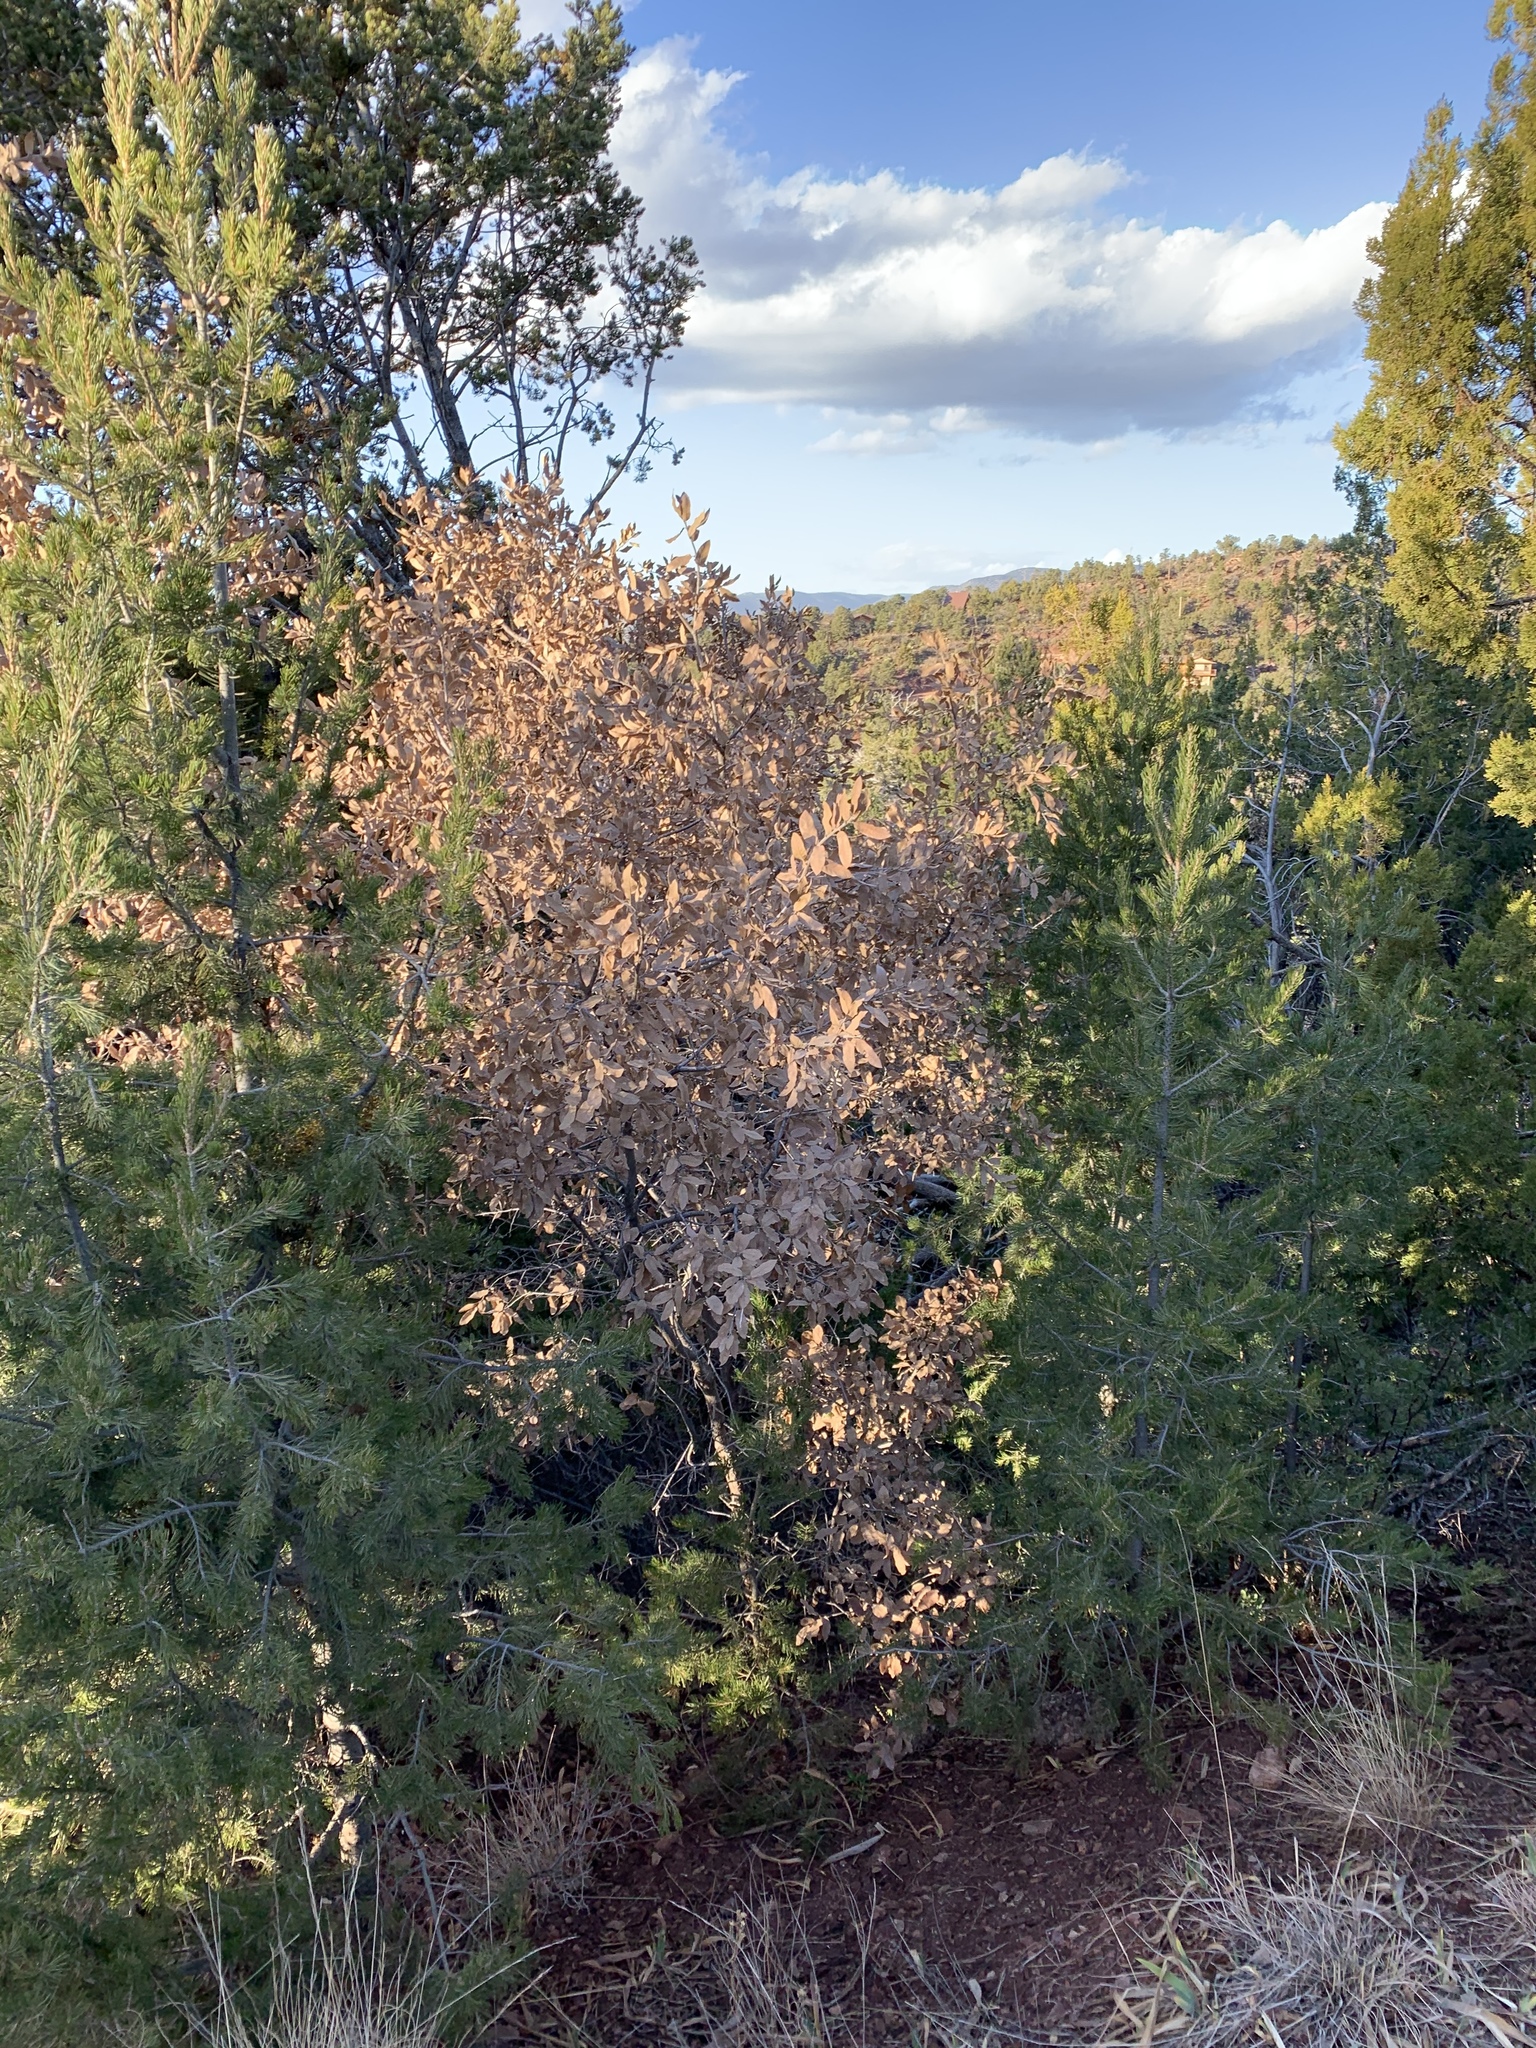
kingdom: Plantae
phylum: Tracheophyta
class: Magnoliopsida
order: Fagales
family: Fagaceae
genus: Quercus
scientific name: Quercus grisea
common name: Gray oak
